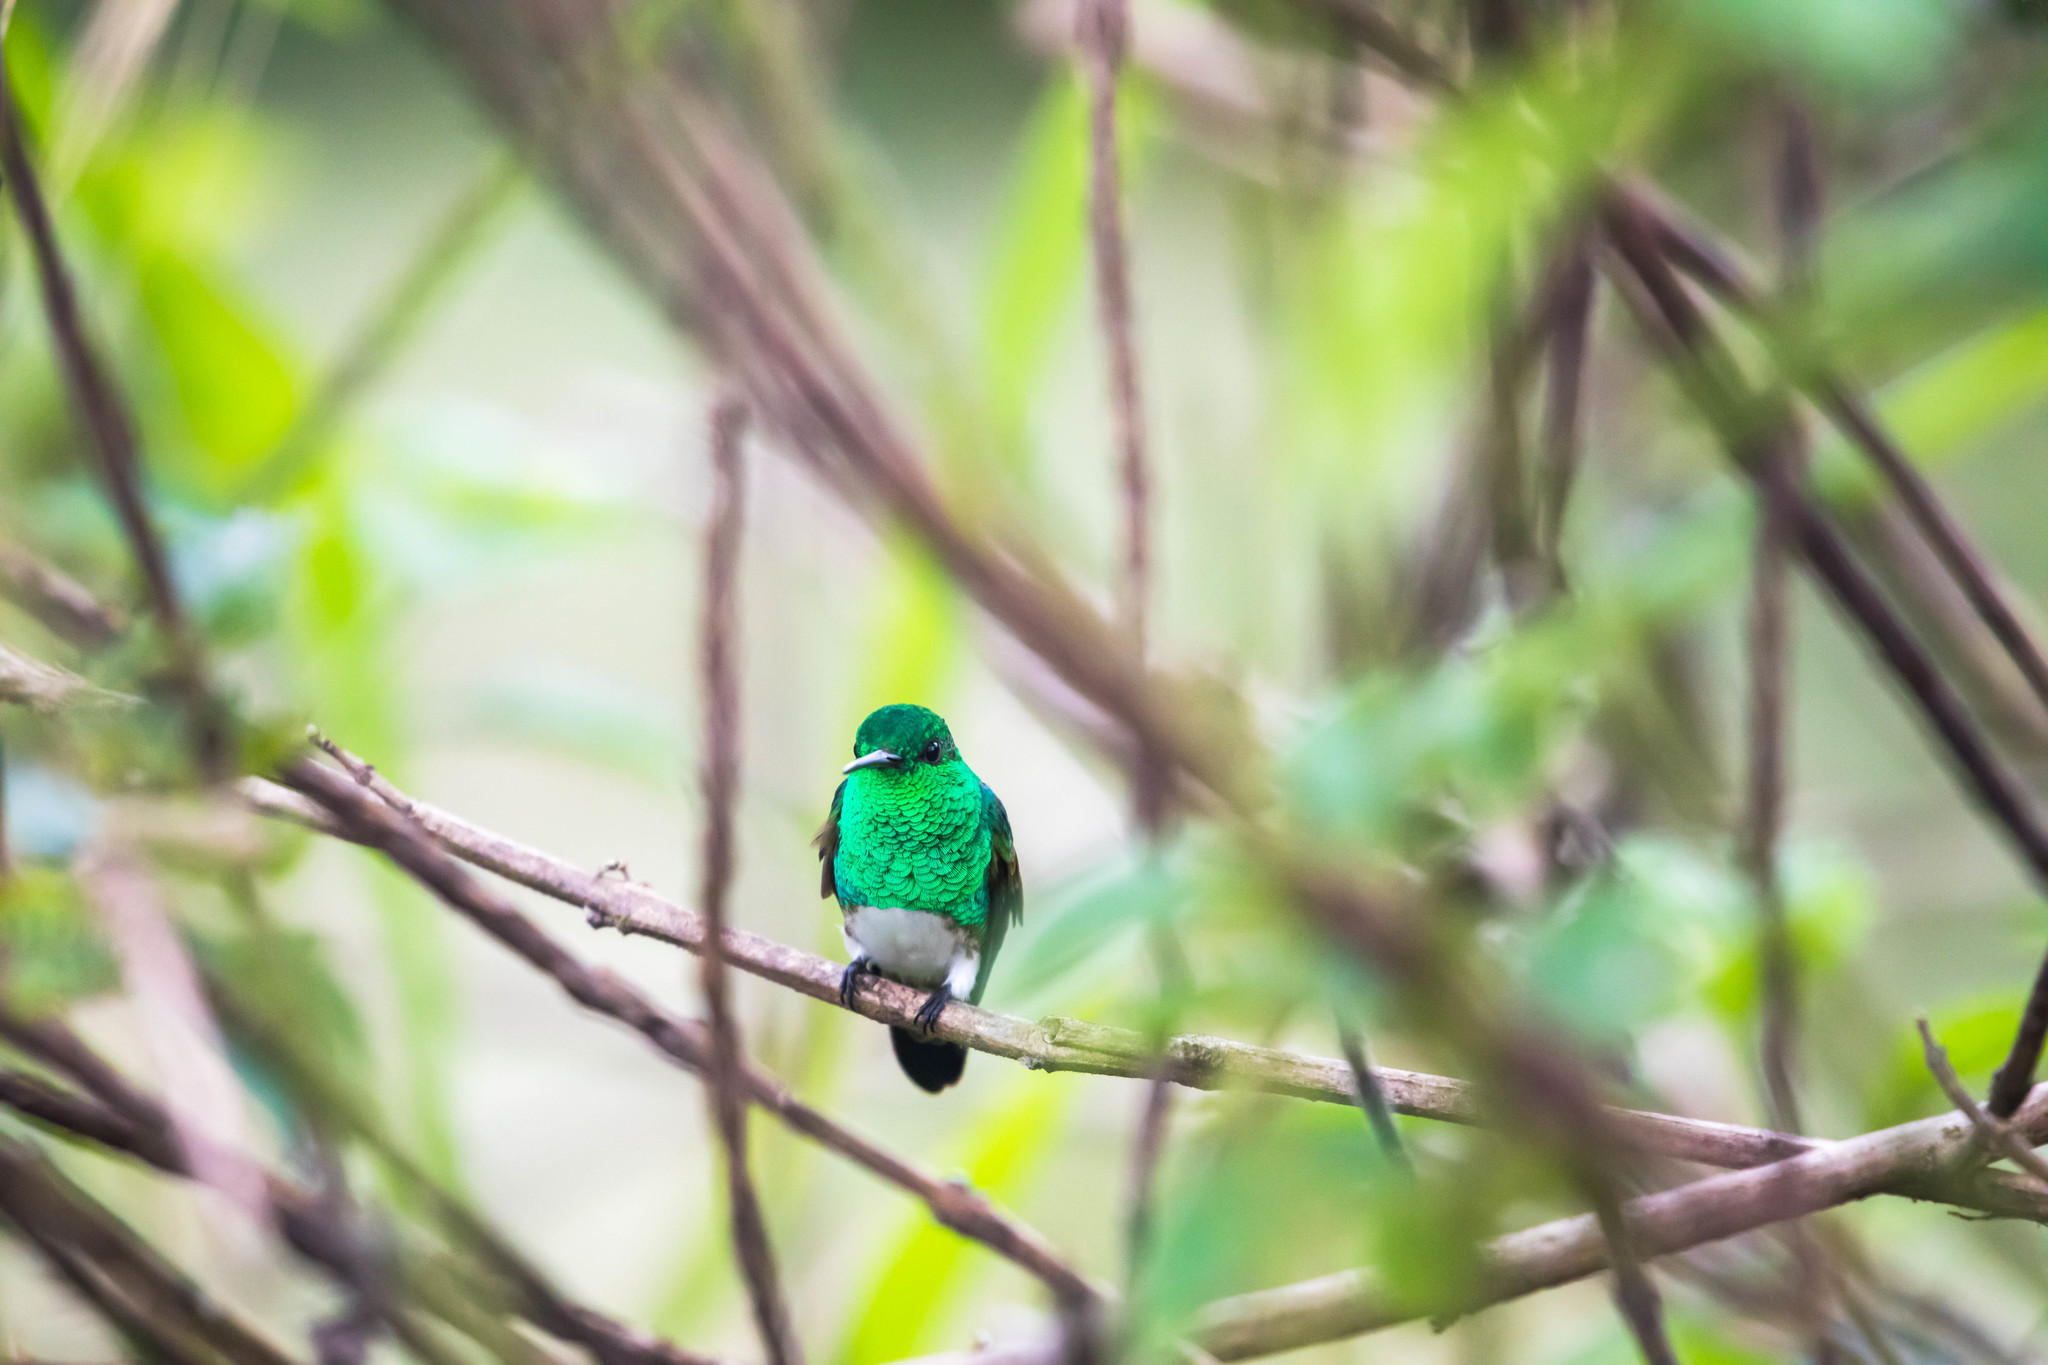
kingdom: Animalia
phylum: Chordata
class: Aves
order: Apodiformes
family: Trochilidae
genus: Saucerottia
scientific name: Saucerottia edward
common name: Snowy-bellied hummingbird
